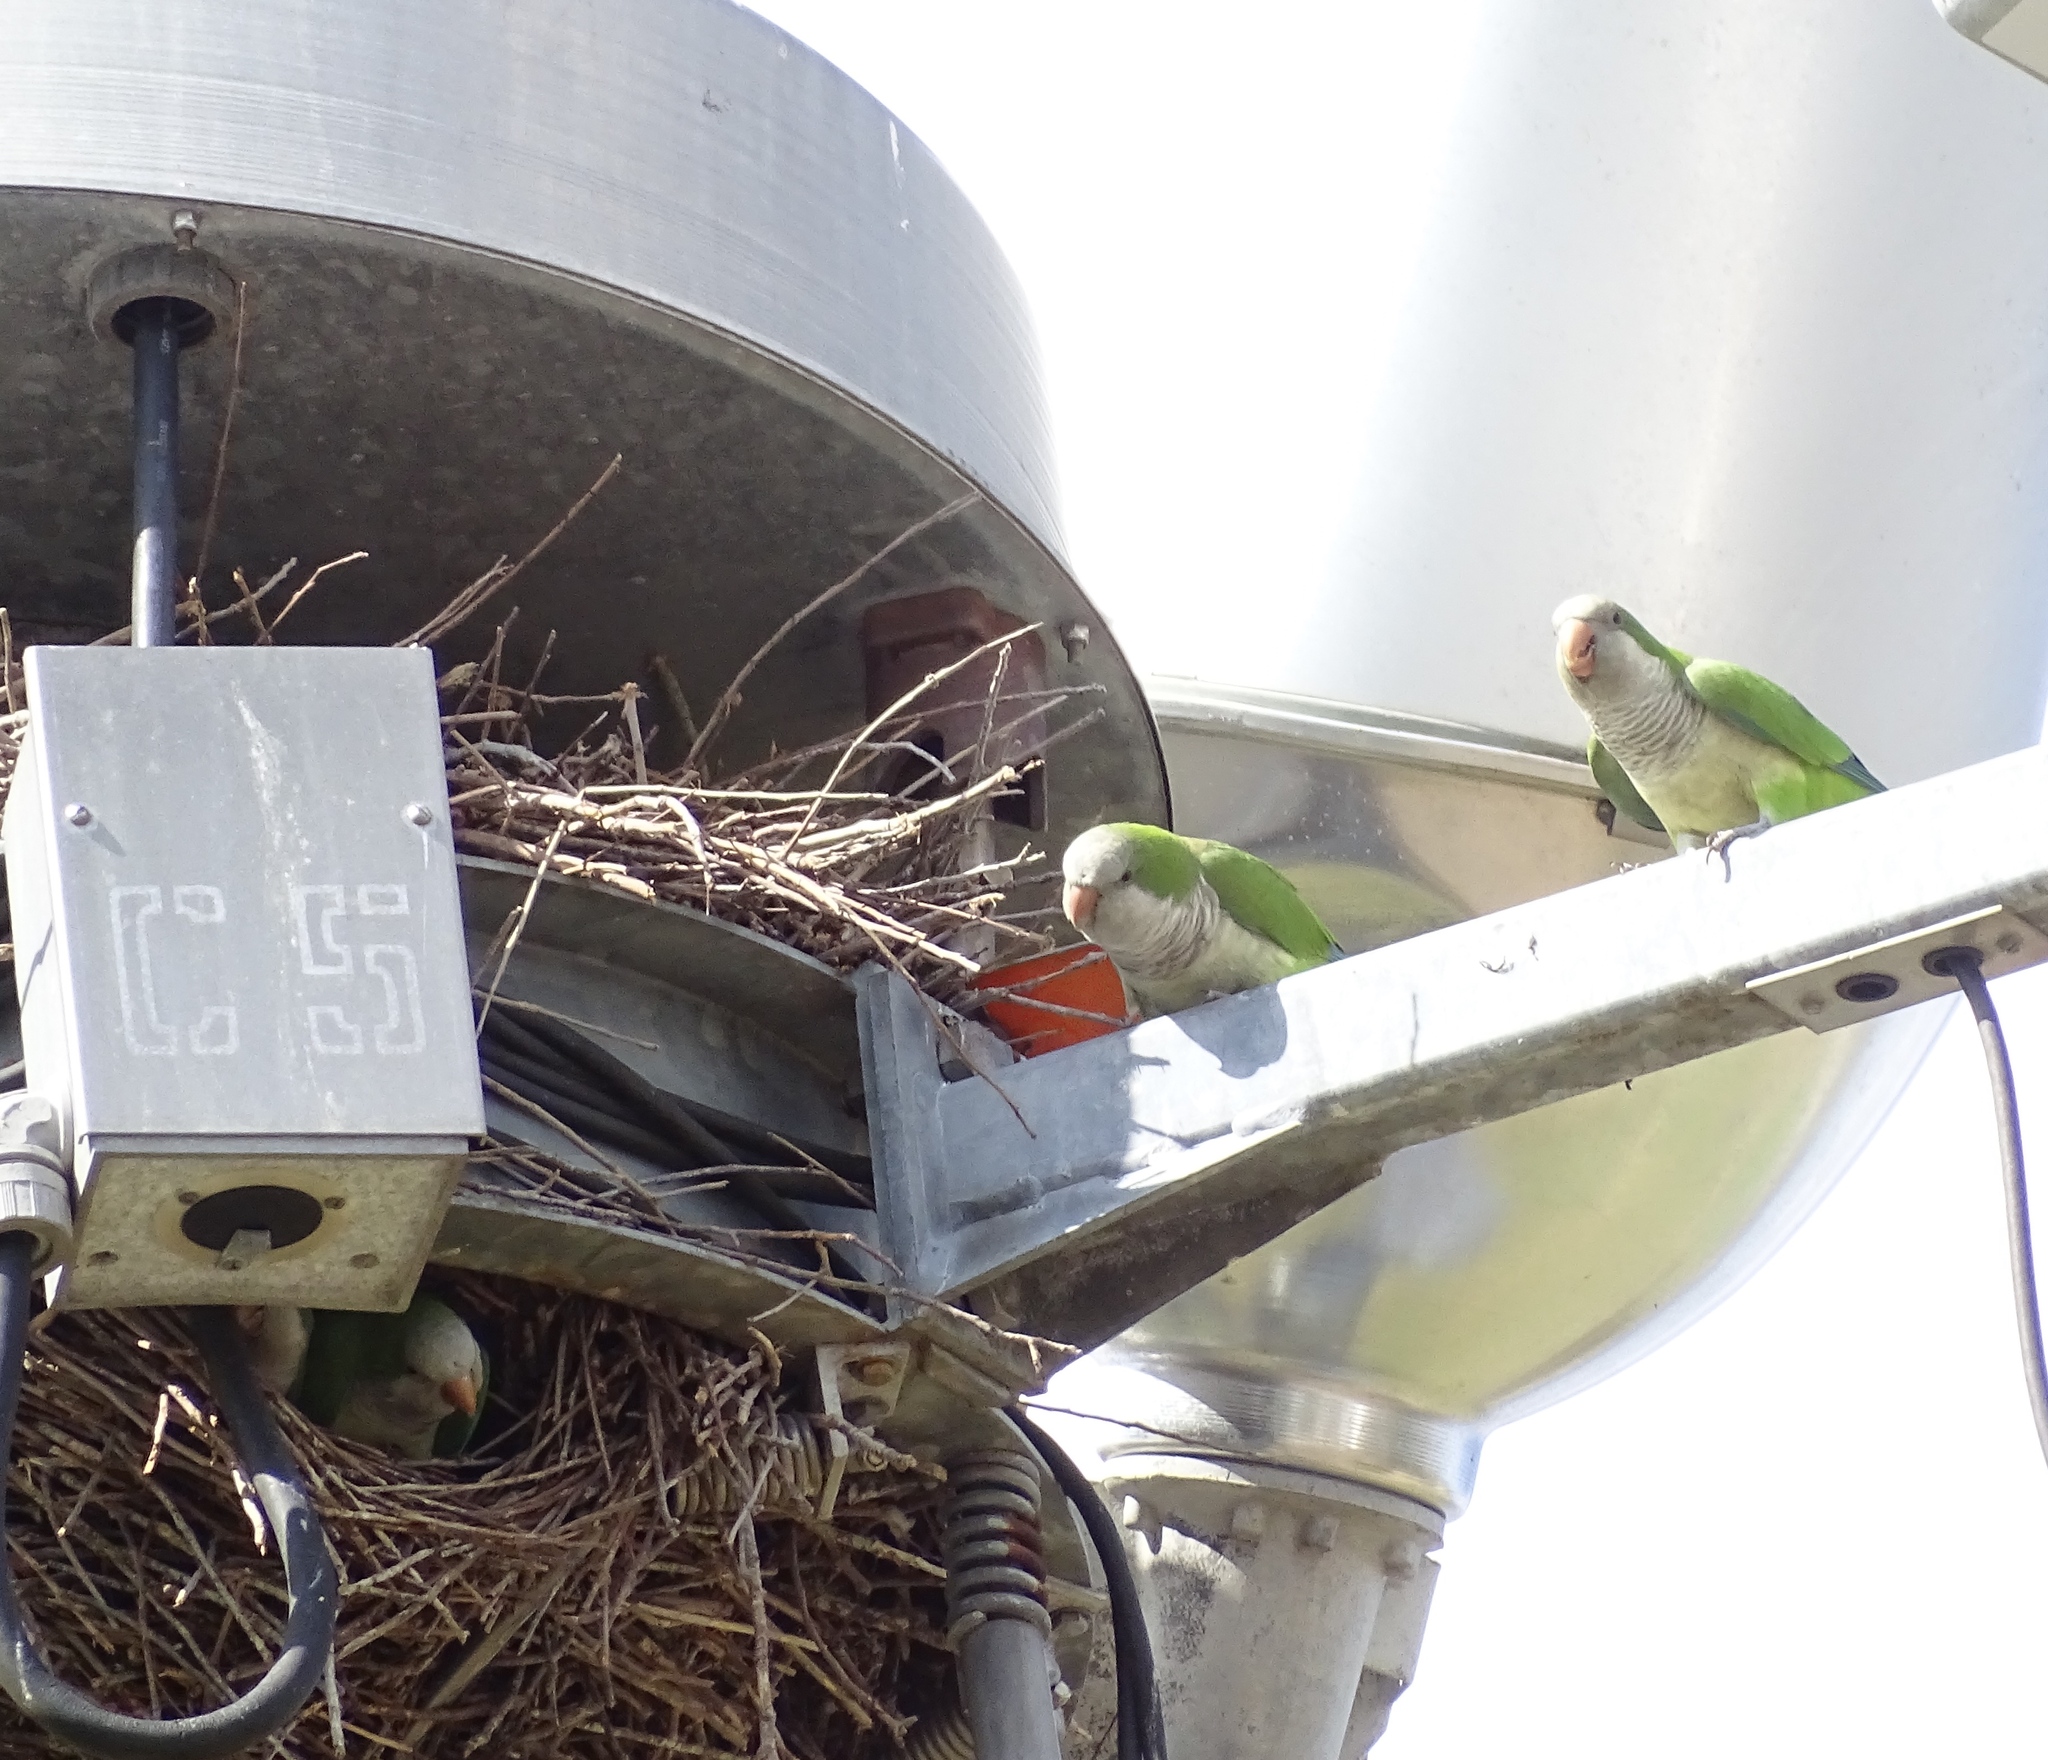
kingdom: Animalia
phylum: Chordata
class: Aves
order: Psittaciformes
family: Psittacidae
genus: Myiopsitta
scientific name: Myiopsitta monachus
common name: Monk parakeet
